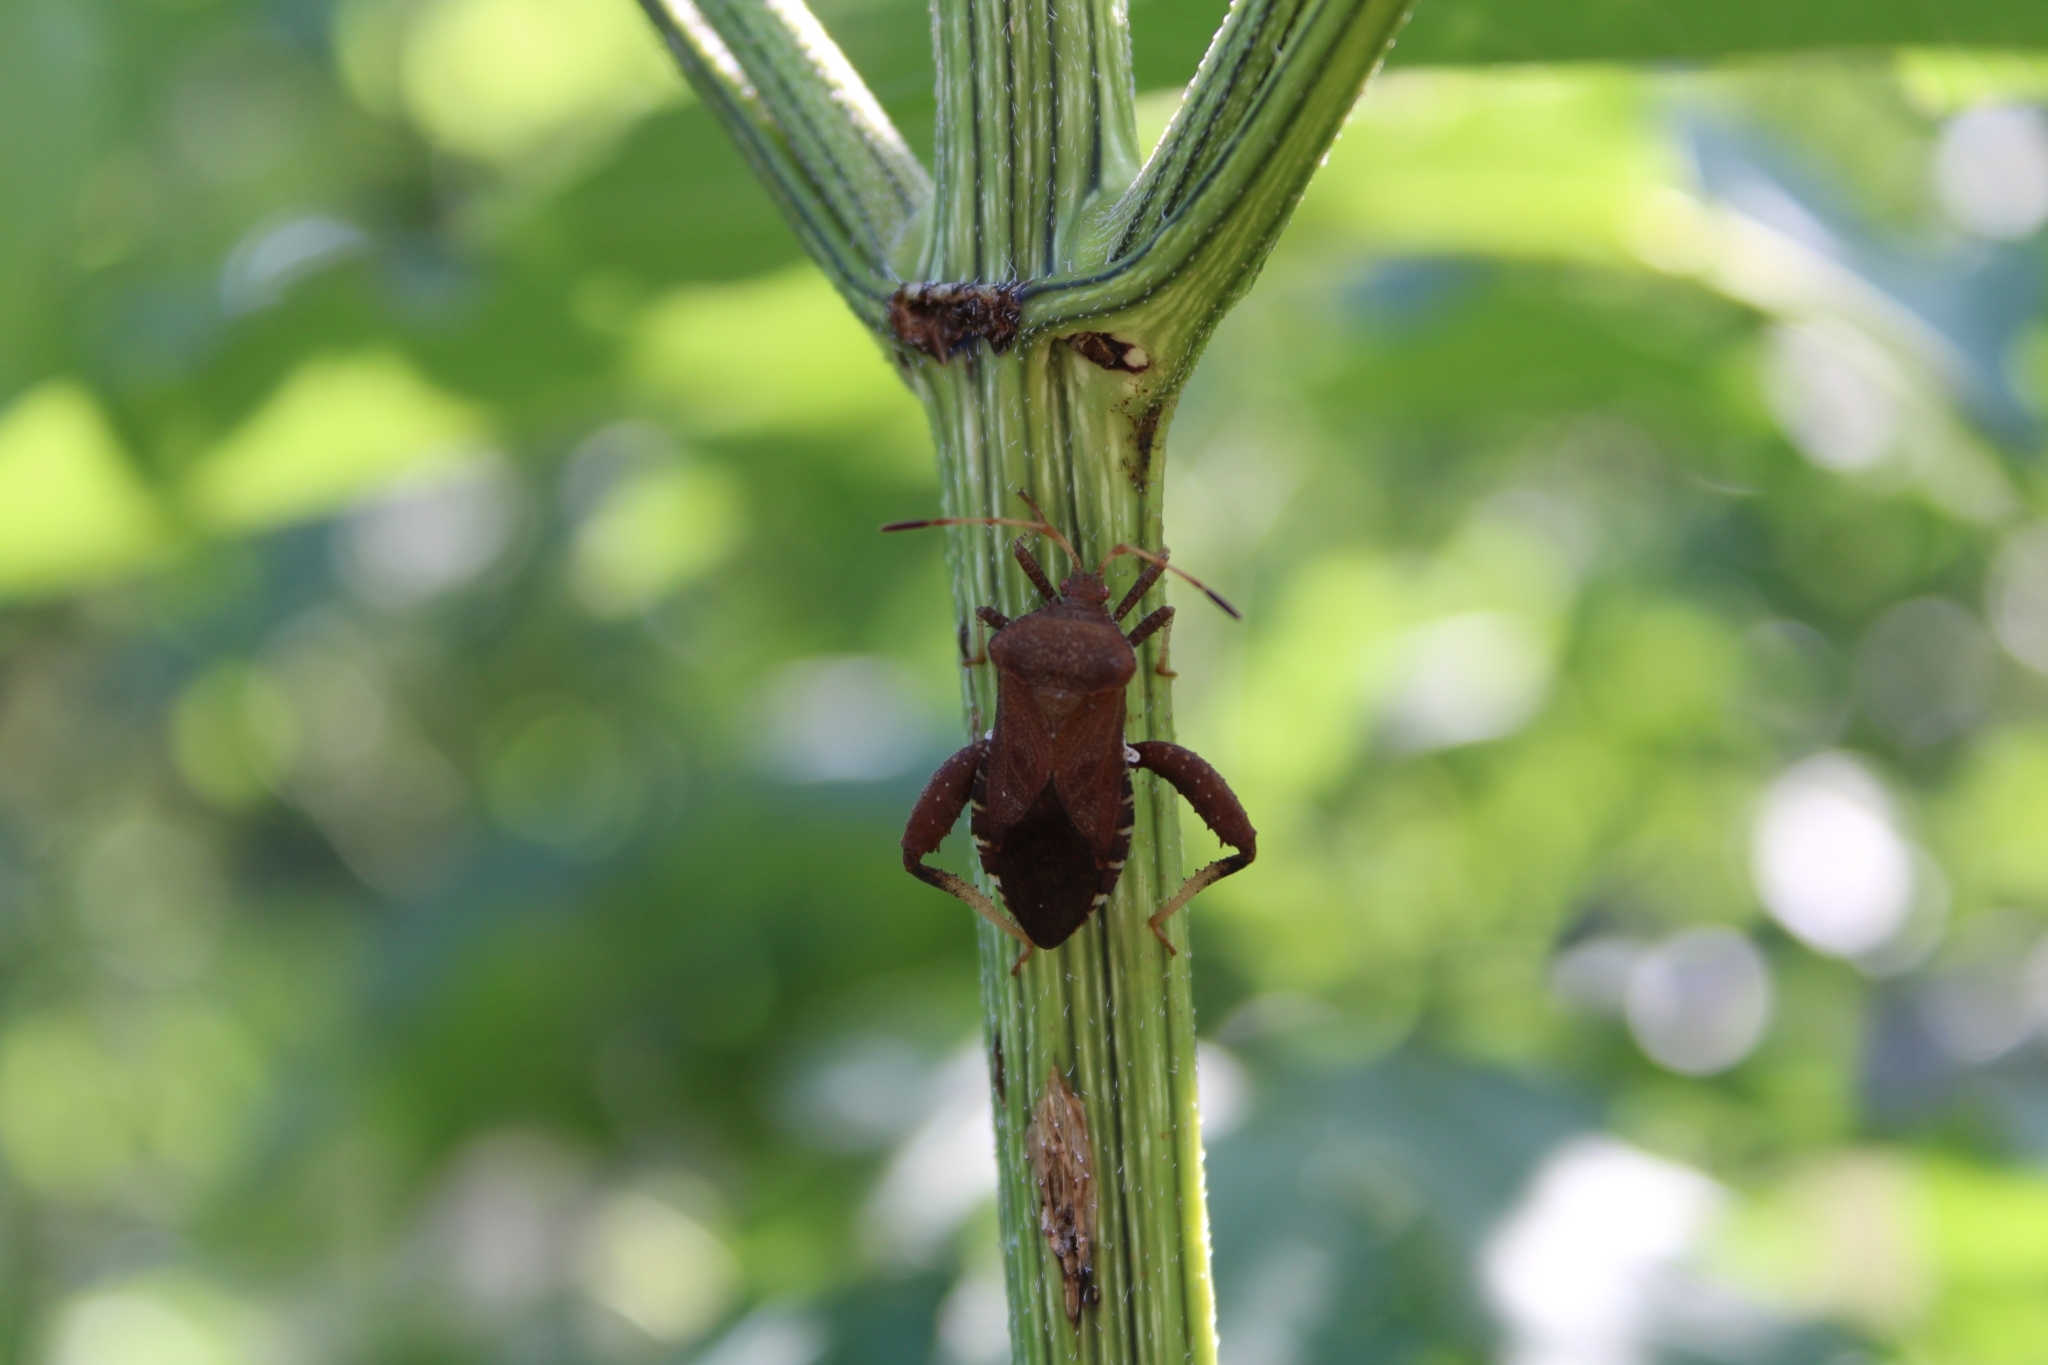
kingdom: Animalia
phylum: Arthropoda
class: Insecta
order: Hemiptera
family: Coreidae
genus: Euthochtha
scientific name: Euthochtha galeator
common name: Helmeted squash bug
